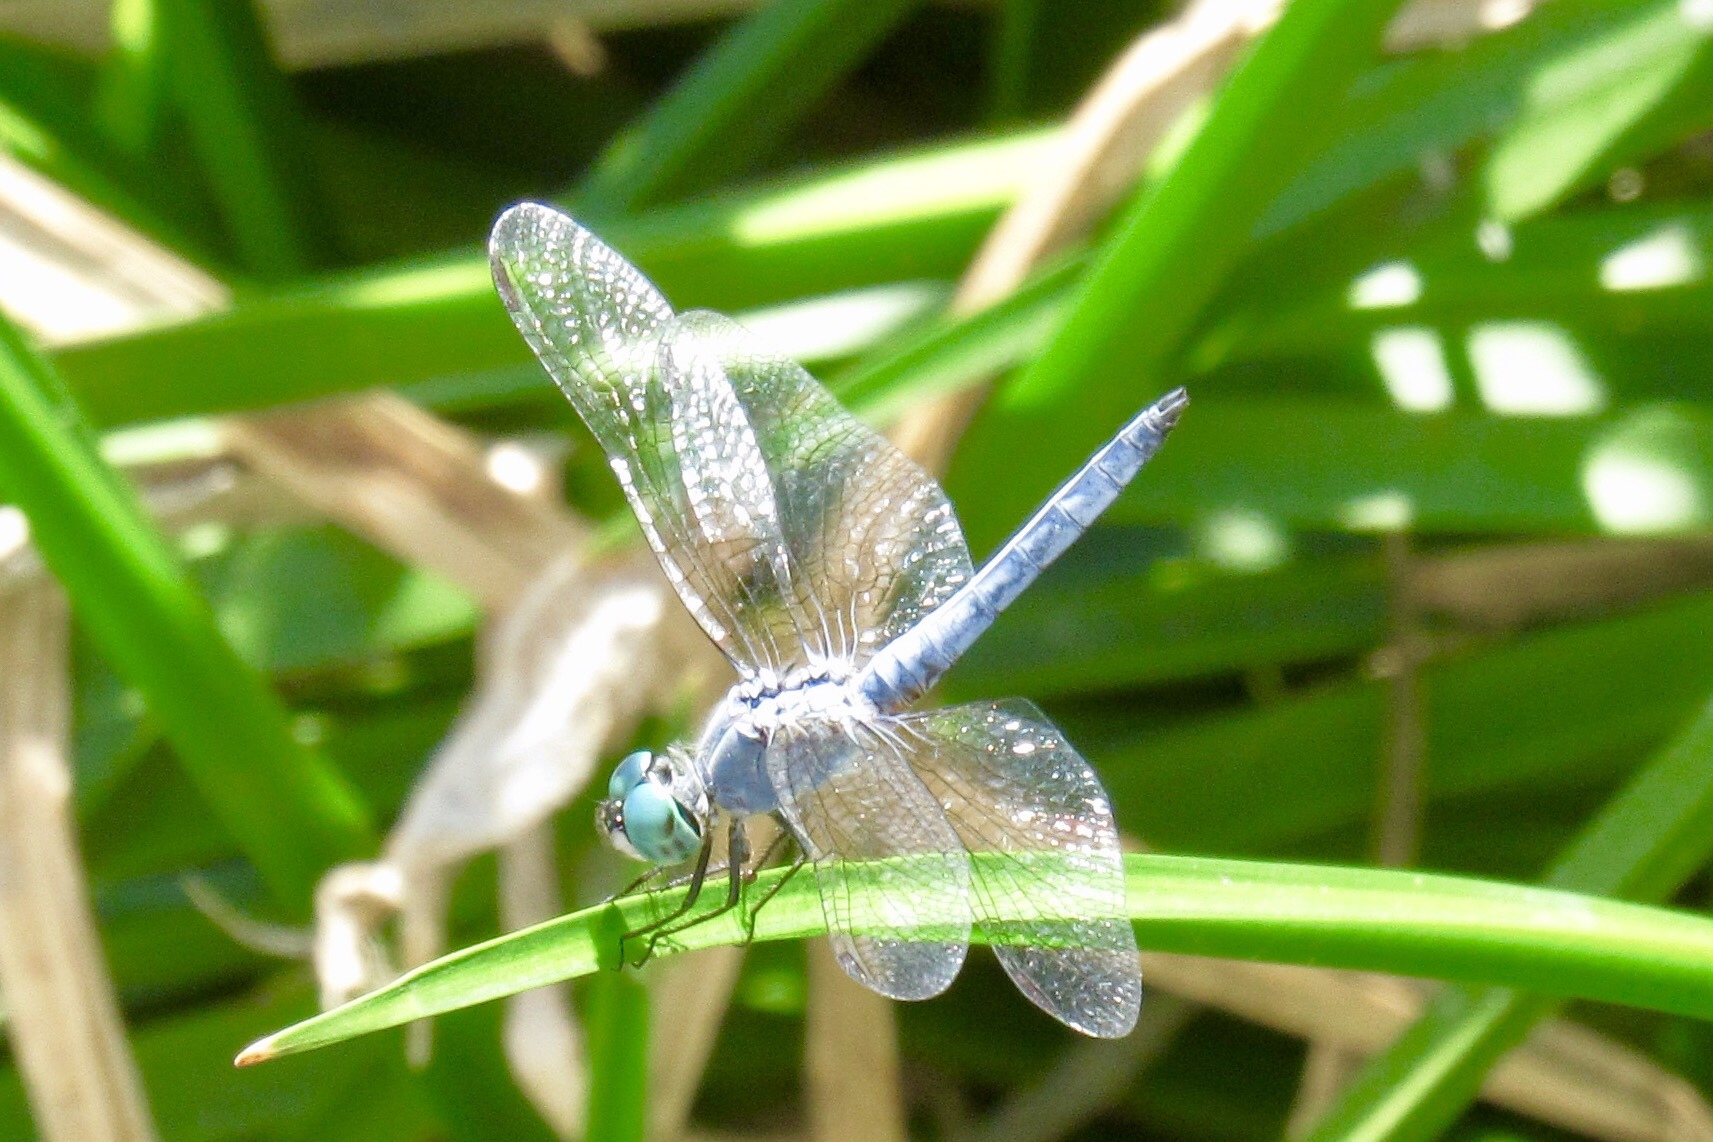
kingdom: Animalia
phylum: Arthropoda
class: Insecta
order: Odonata
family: Libellulidae
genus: Pachydiplax
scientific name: Pachydiplax longipennis
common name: Blue dasher
